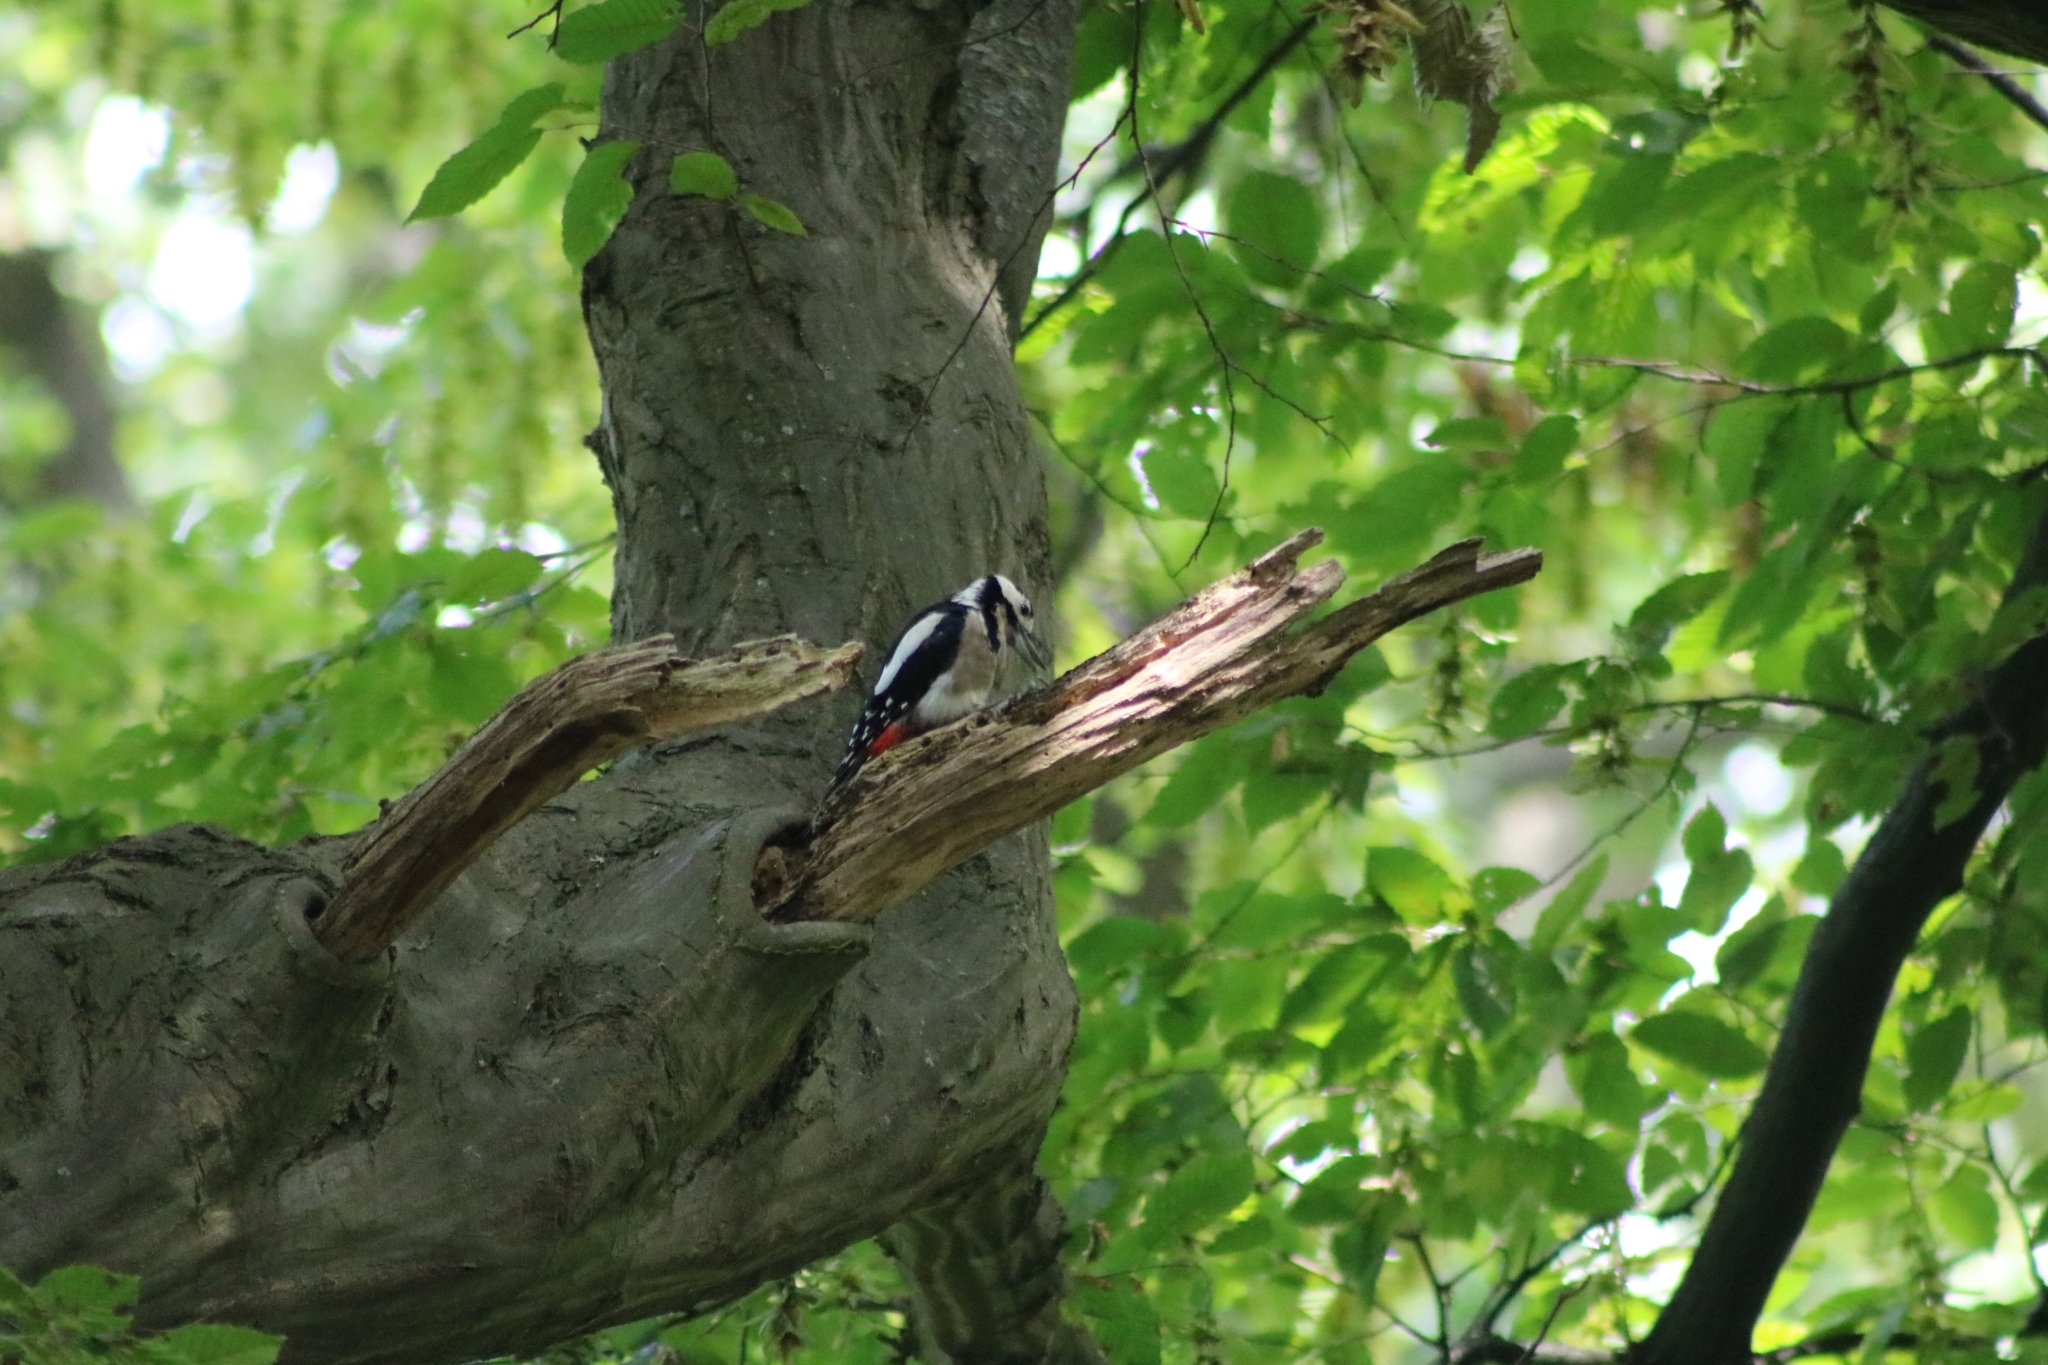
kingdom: Animalia
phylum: Chordata
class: Aves
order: Piciformes
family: Picidae
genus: Dendrocopos
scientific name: Dendrocopos major
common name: Great spotted woodpecker
